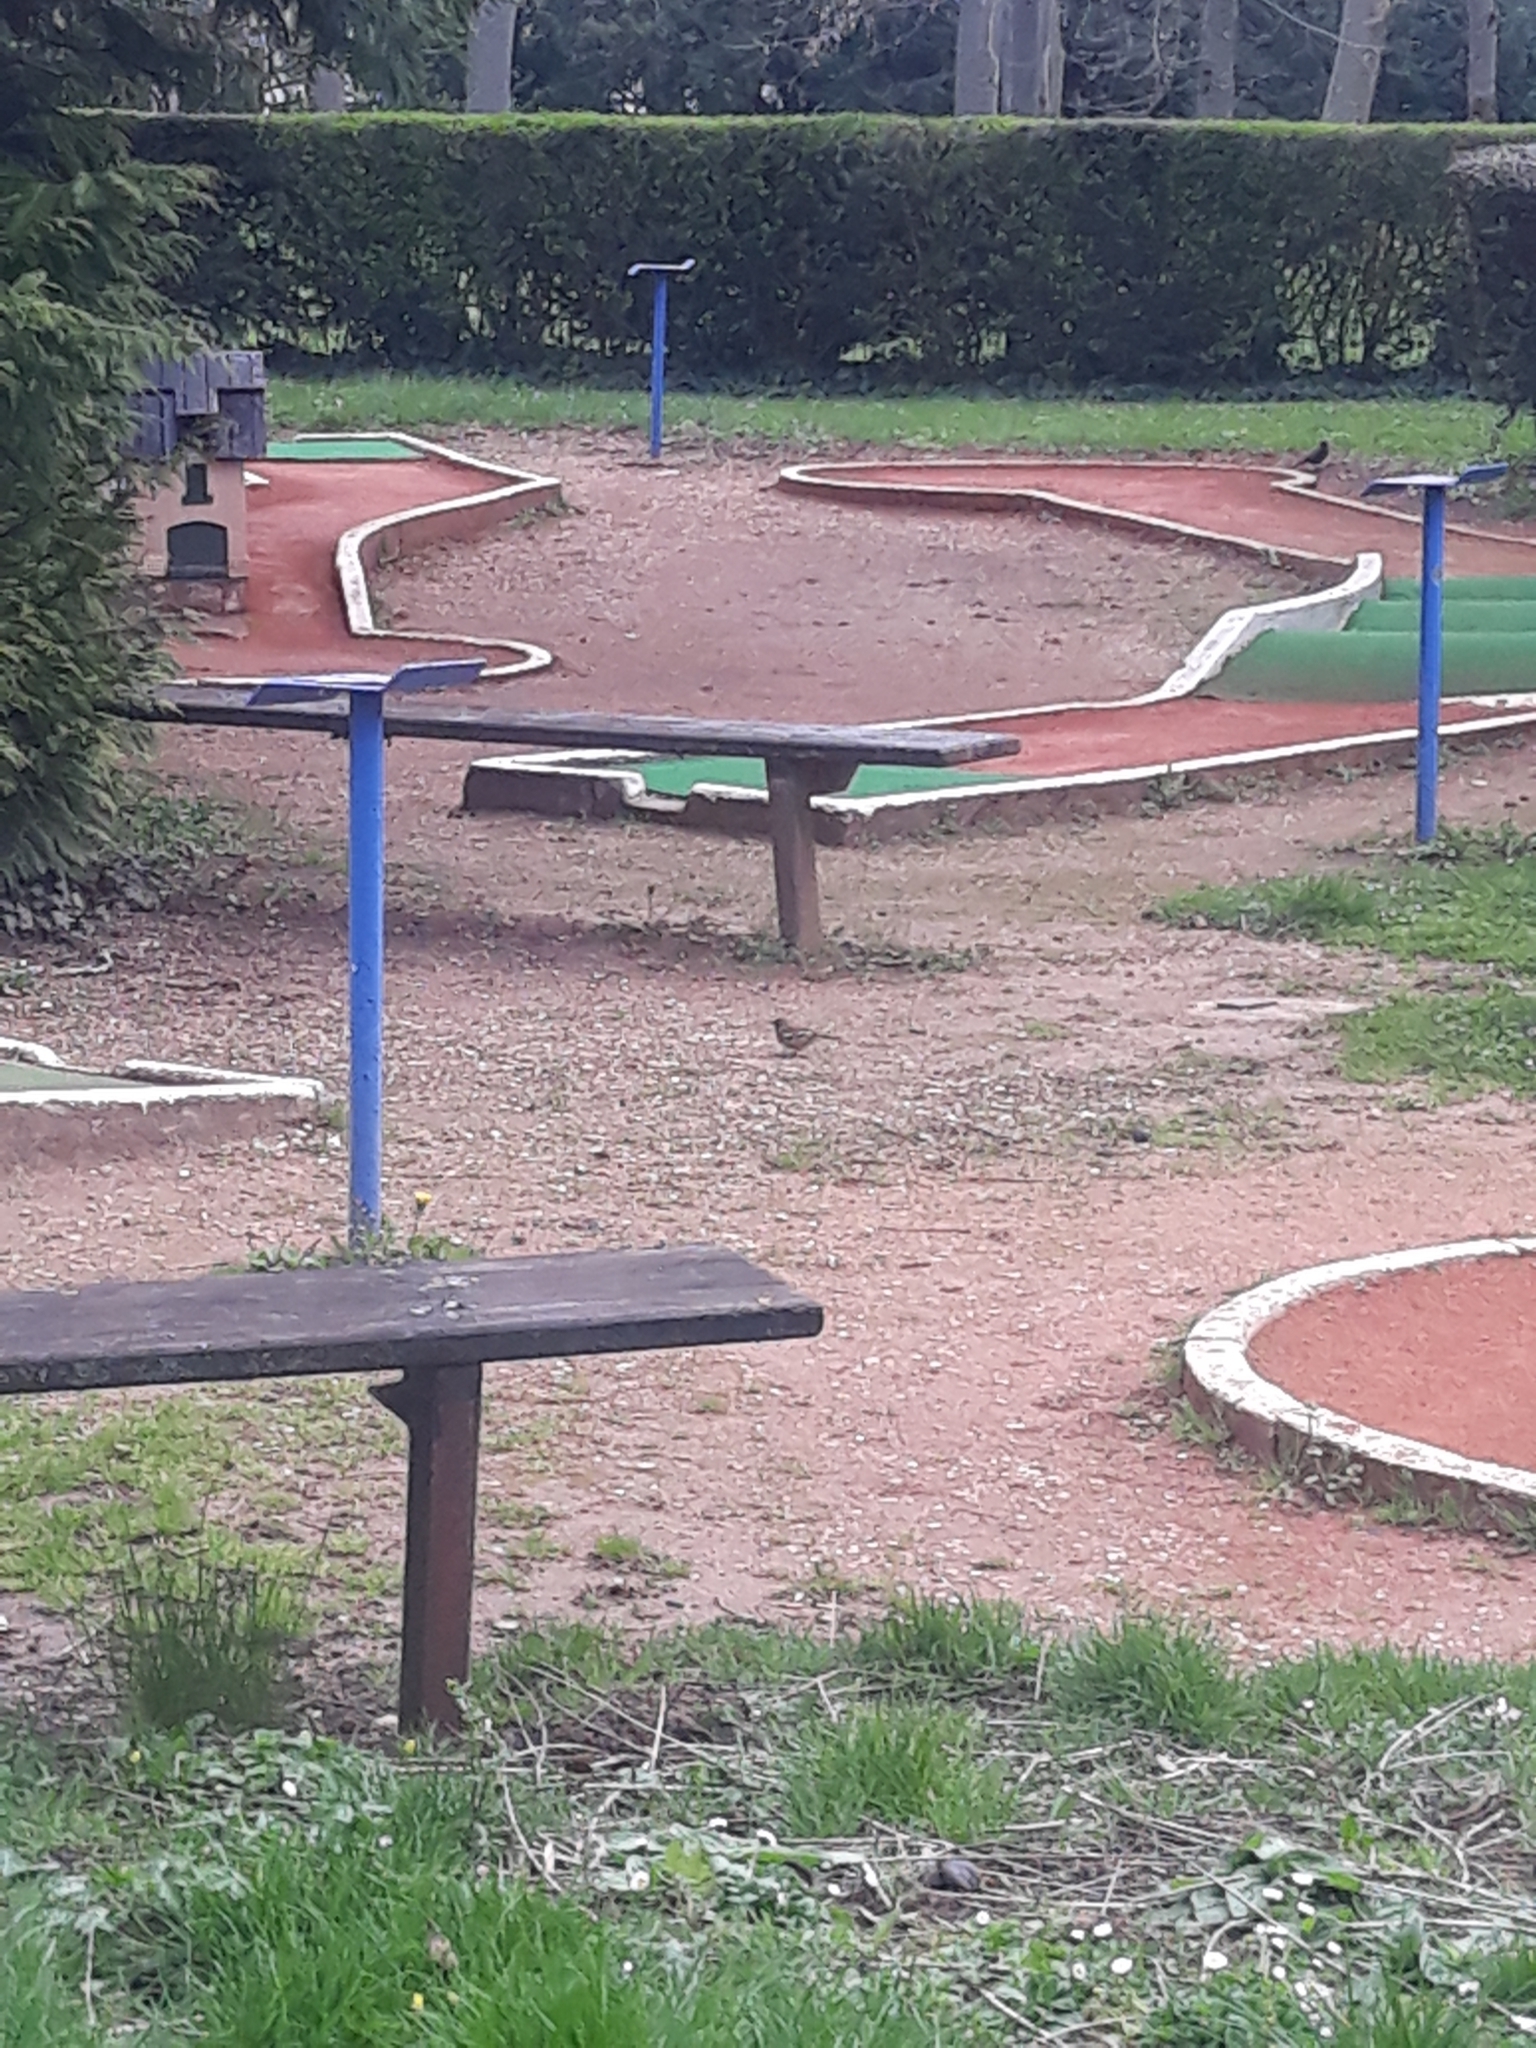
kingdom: Animalia
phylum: Chordata
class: Aves
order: Passeriformes
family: Fringillidae
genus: Fringilla
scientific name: Fringilla coelebs
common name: Common chaffinch
